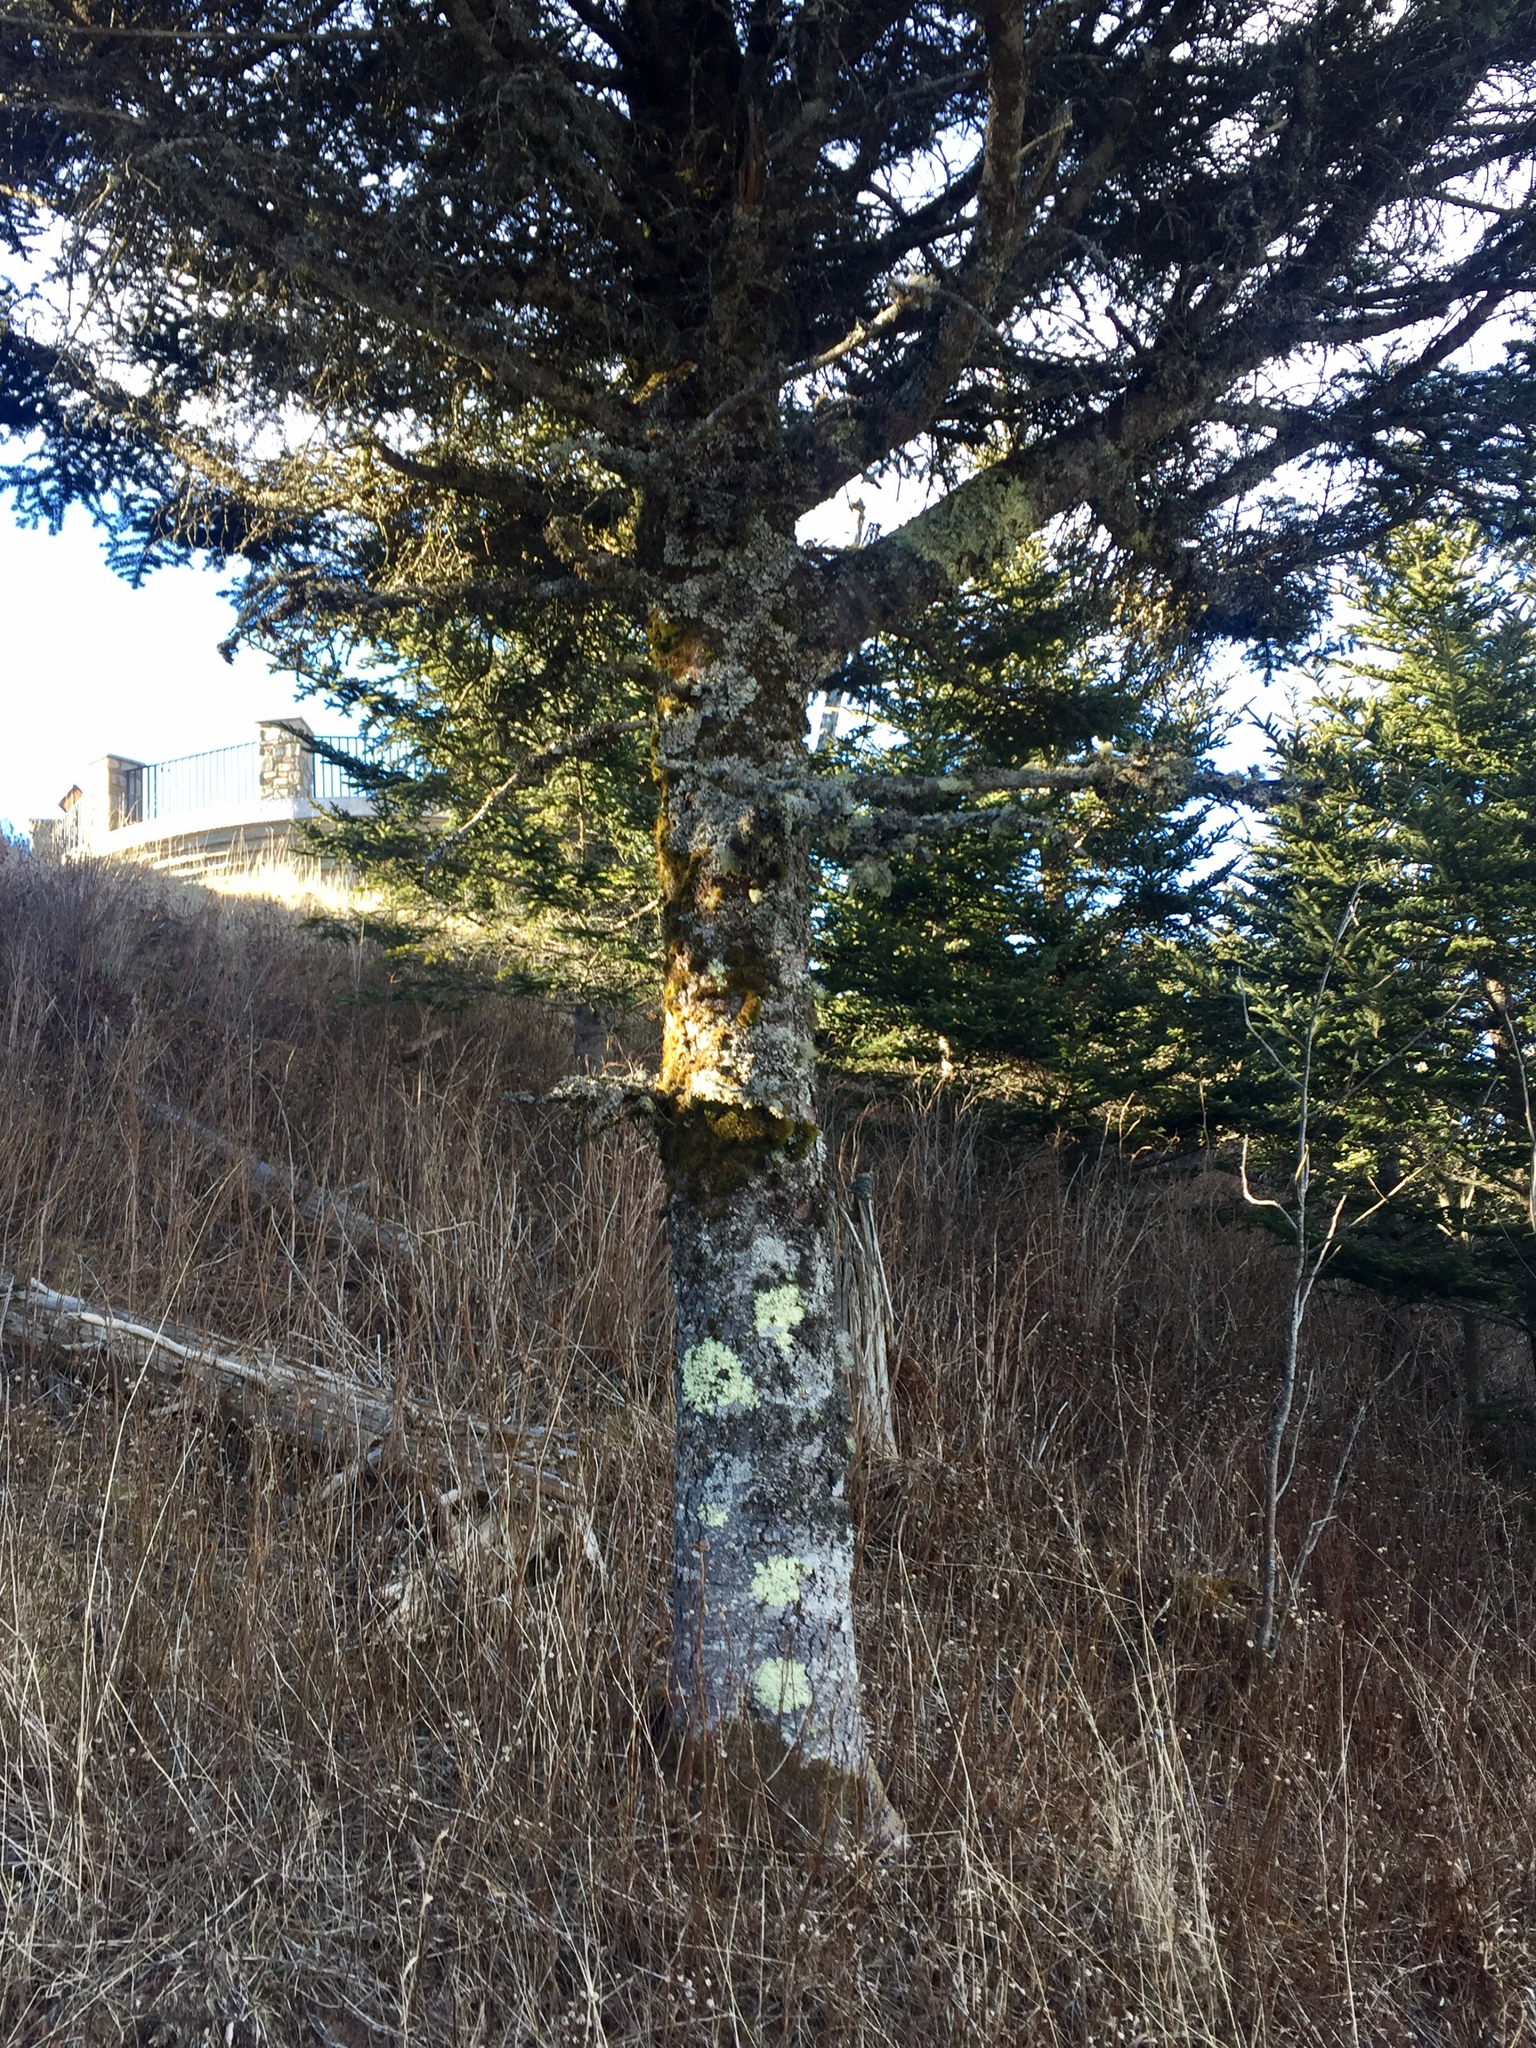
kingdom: Plantae
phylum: Tracheophyta
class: Pinopsida
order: Pinales
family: Pinaceae
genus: Abies
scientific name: Abies fraseri
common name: Fraser fir
